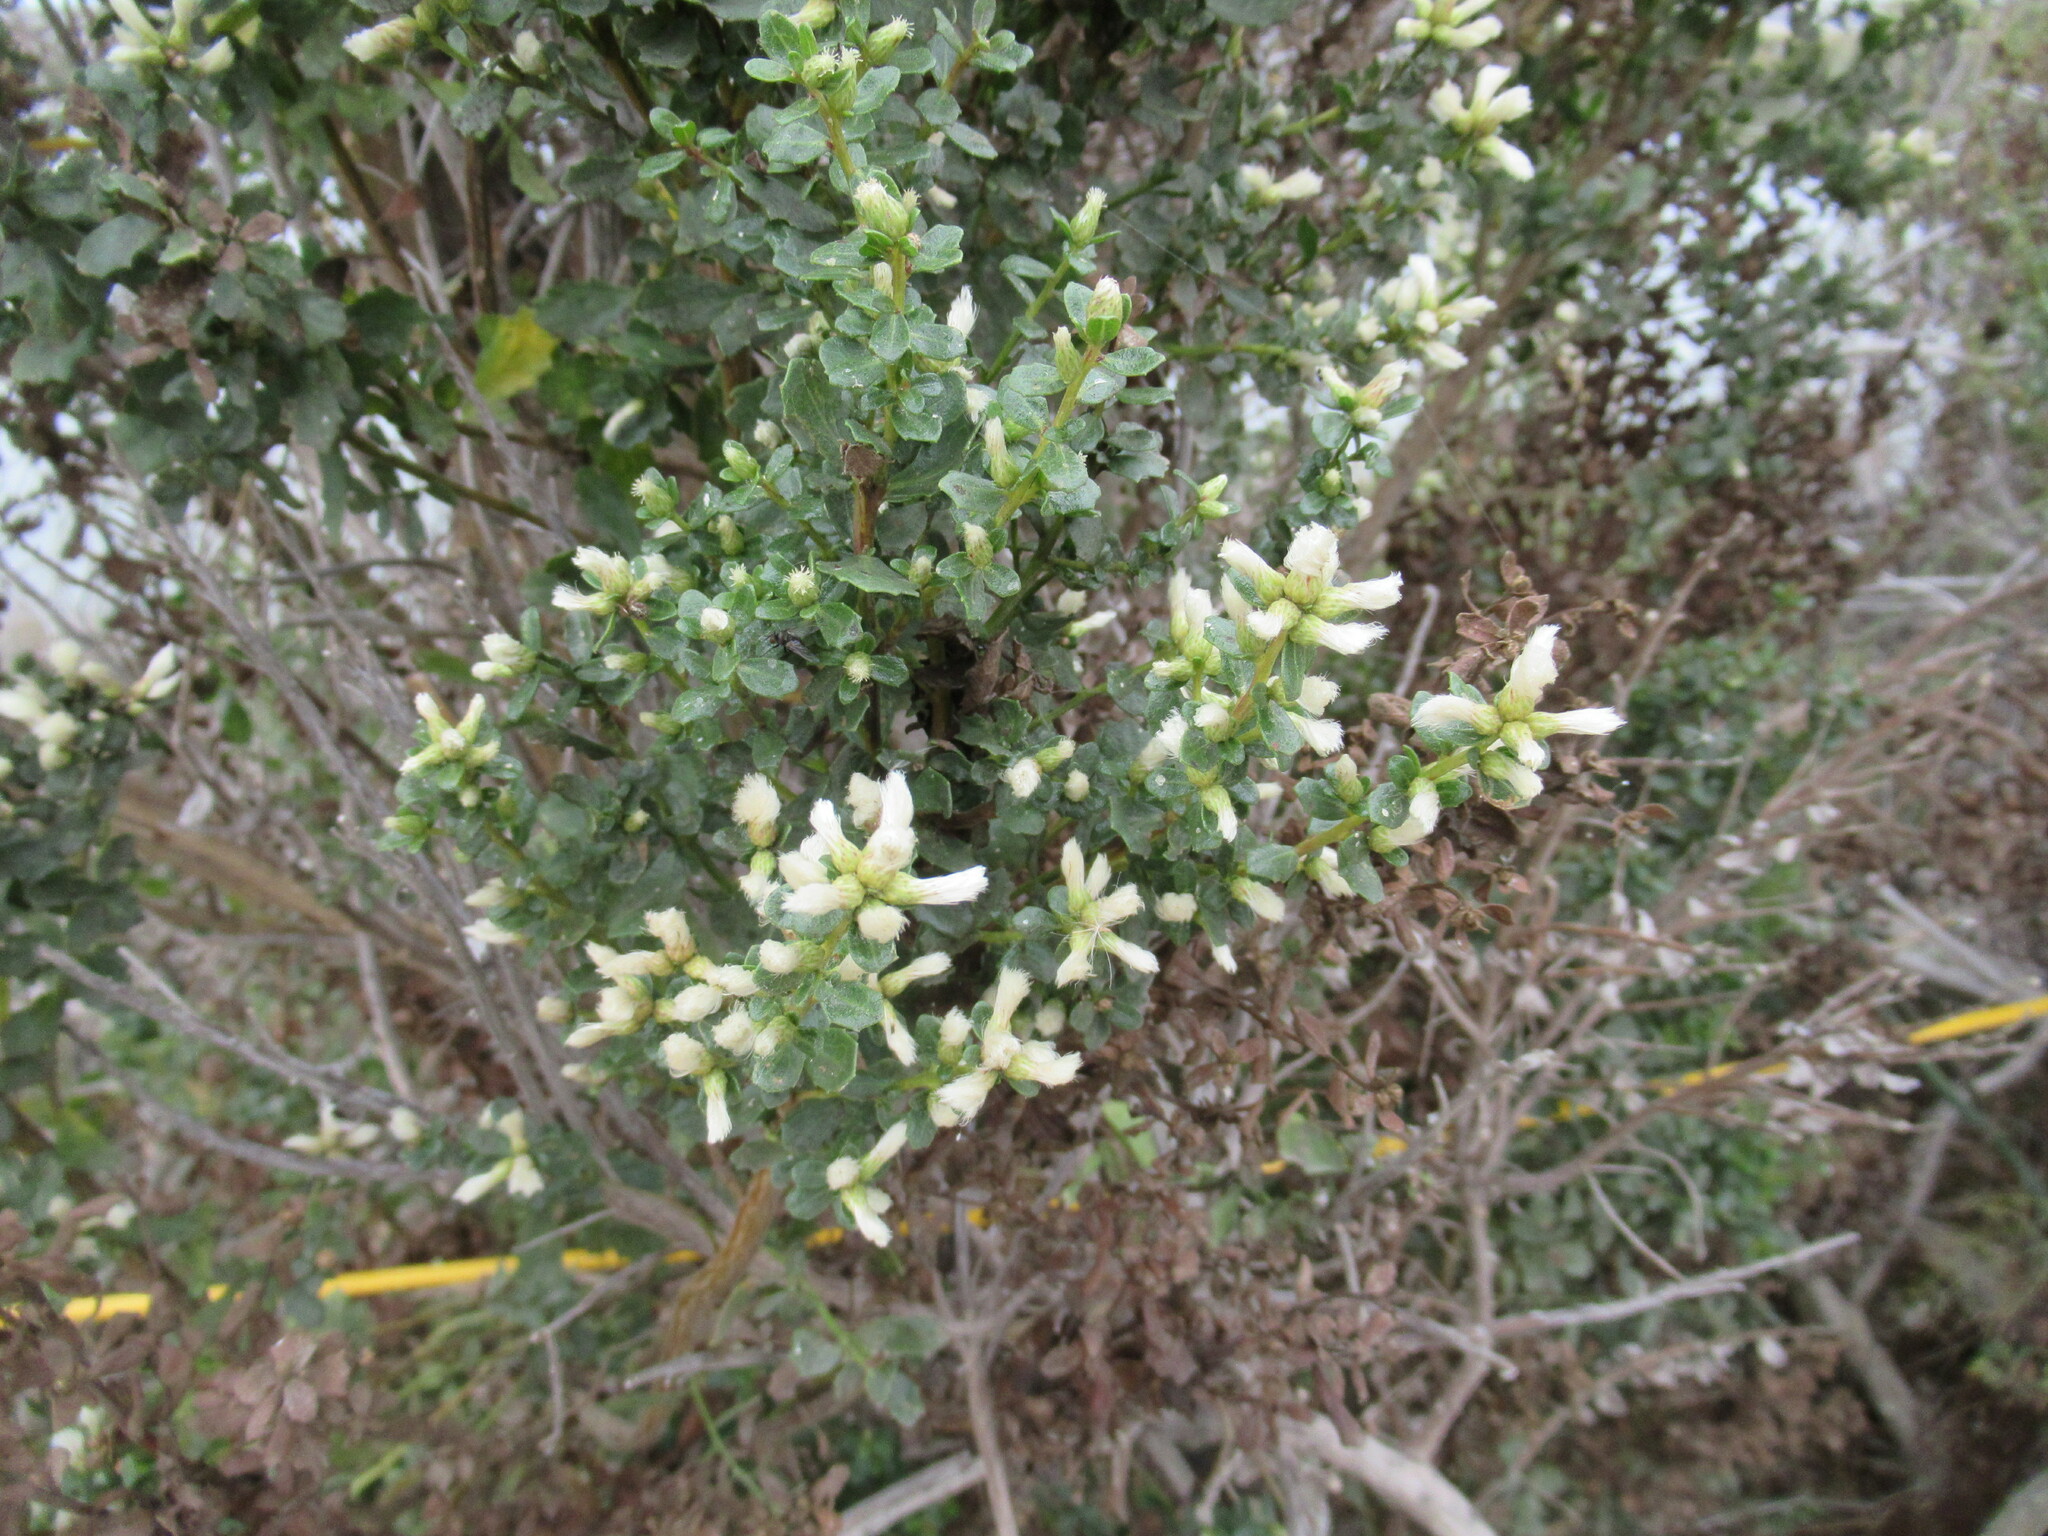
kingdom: Plantae
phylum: Tracheophyta
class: Magnoliopsida
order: Asterales
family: Asteraceae
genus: Baccharis
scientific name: Baccharis pilularis
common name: Coyotebrush
